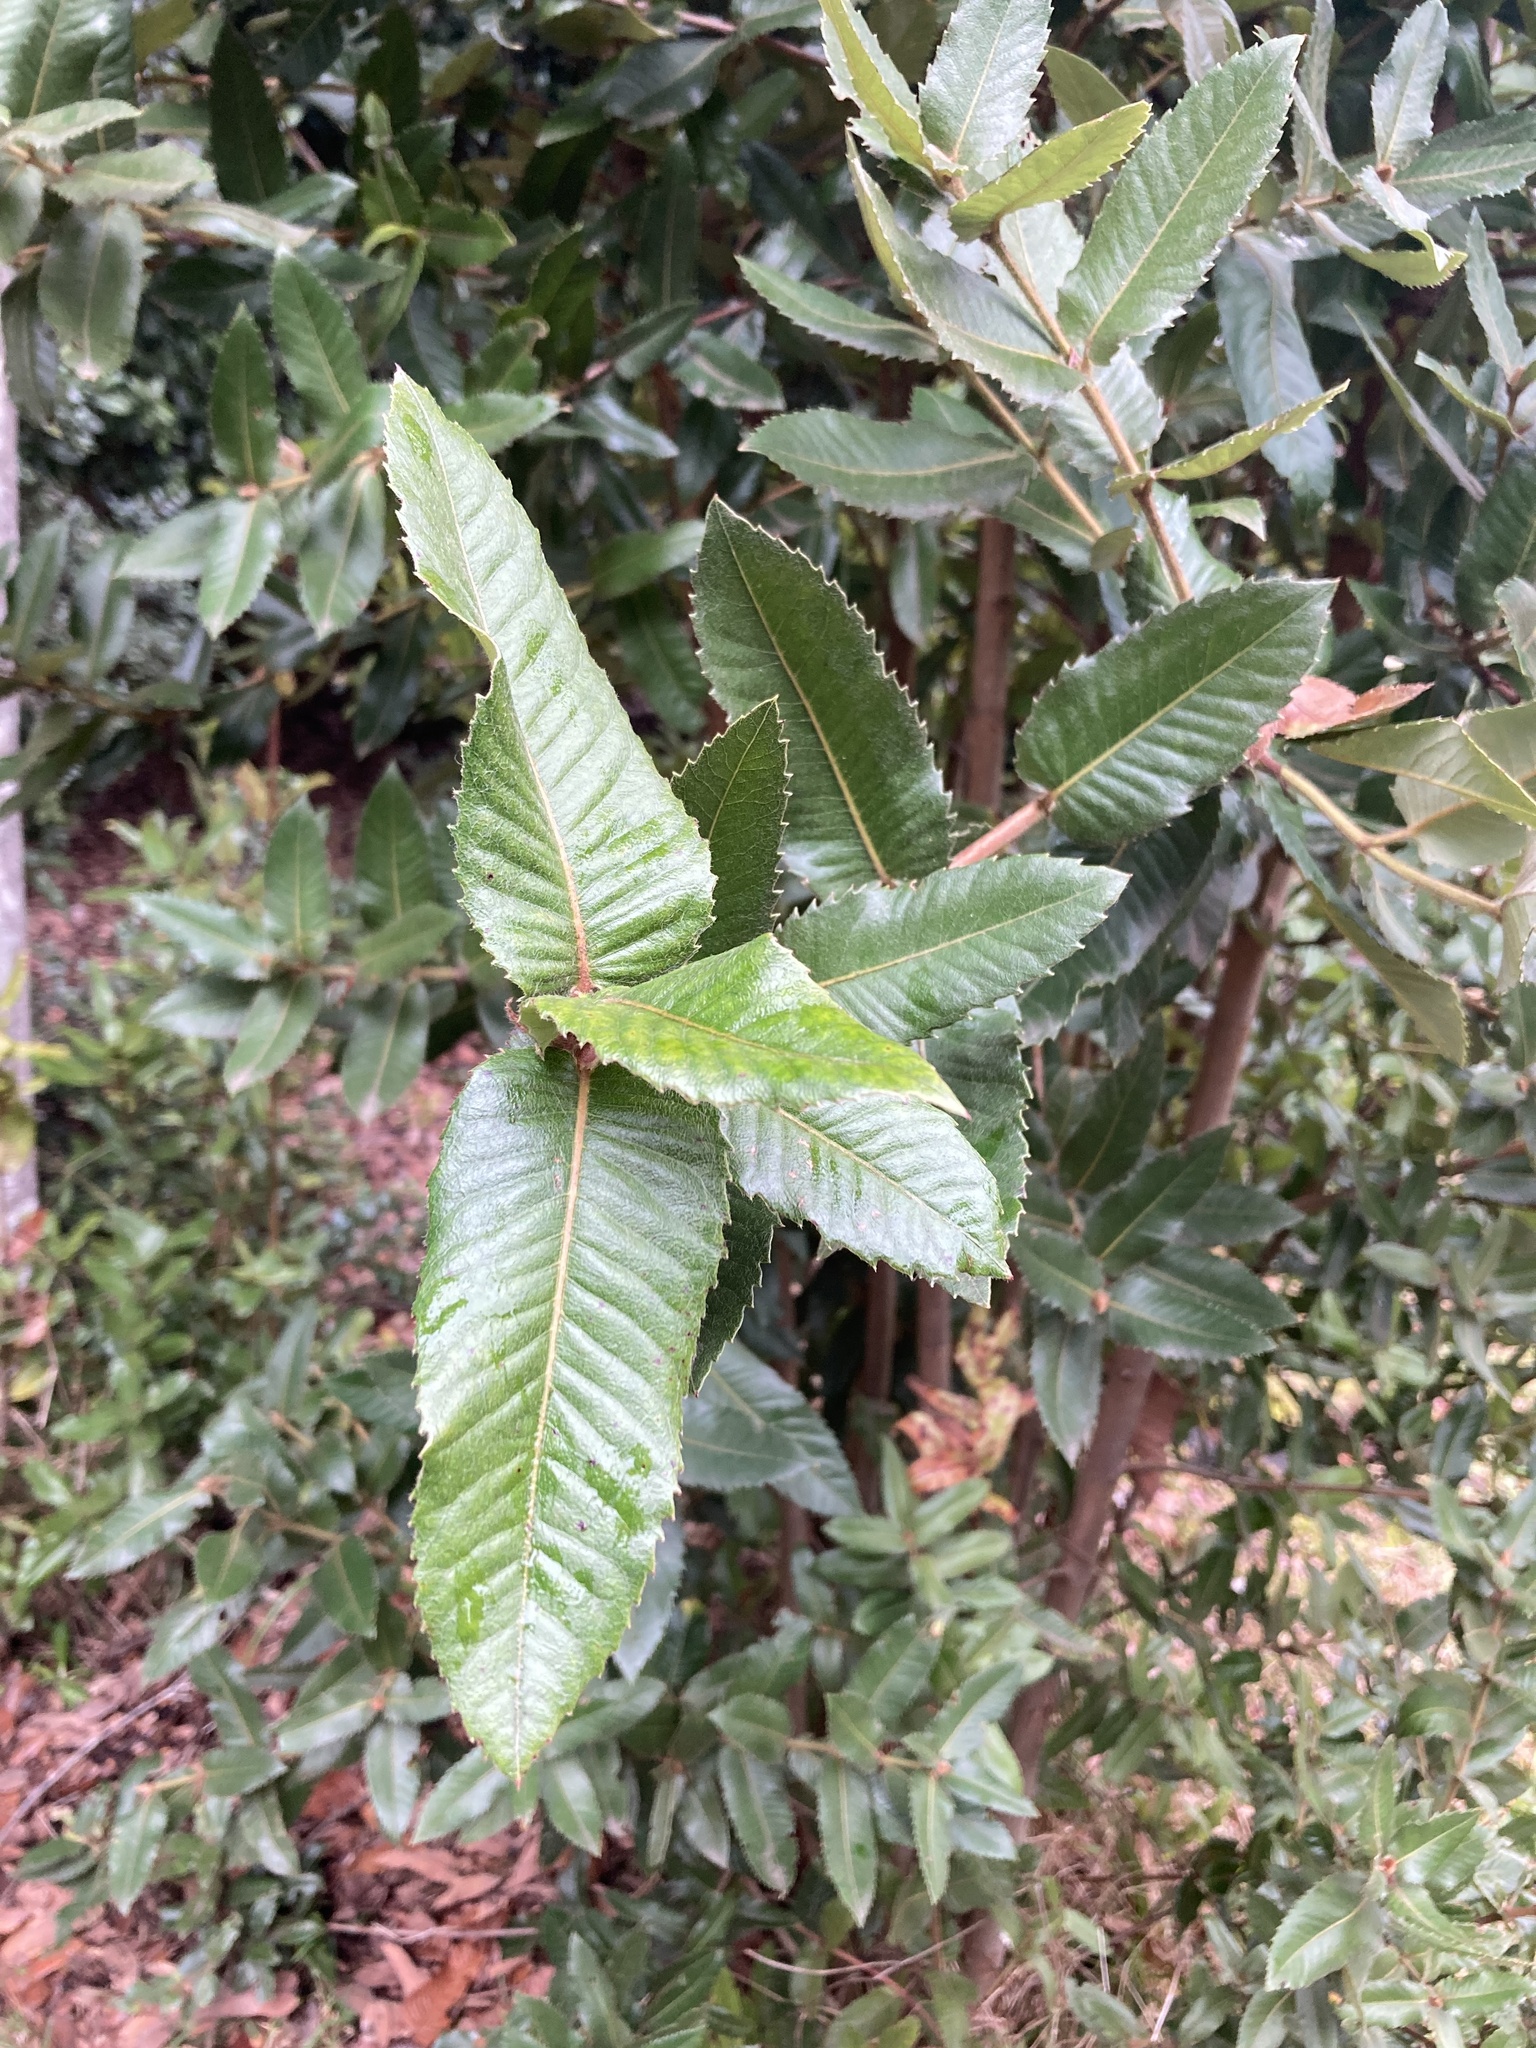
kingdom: Plantae
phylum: Tracheophyta
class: Magnoliopsida
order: Oxalidales
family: Cunoniaceae
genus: Eucryphia
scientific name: Eucryphia cordifolia
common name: Ulmo
